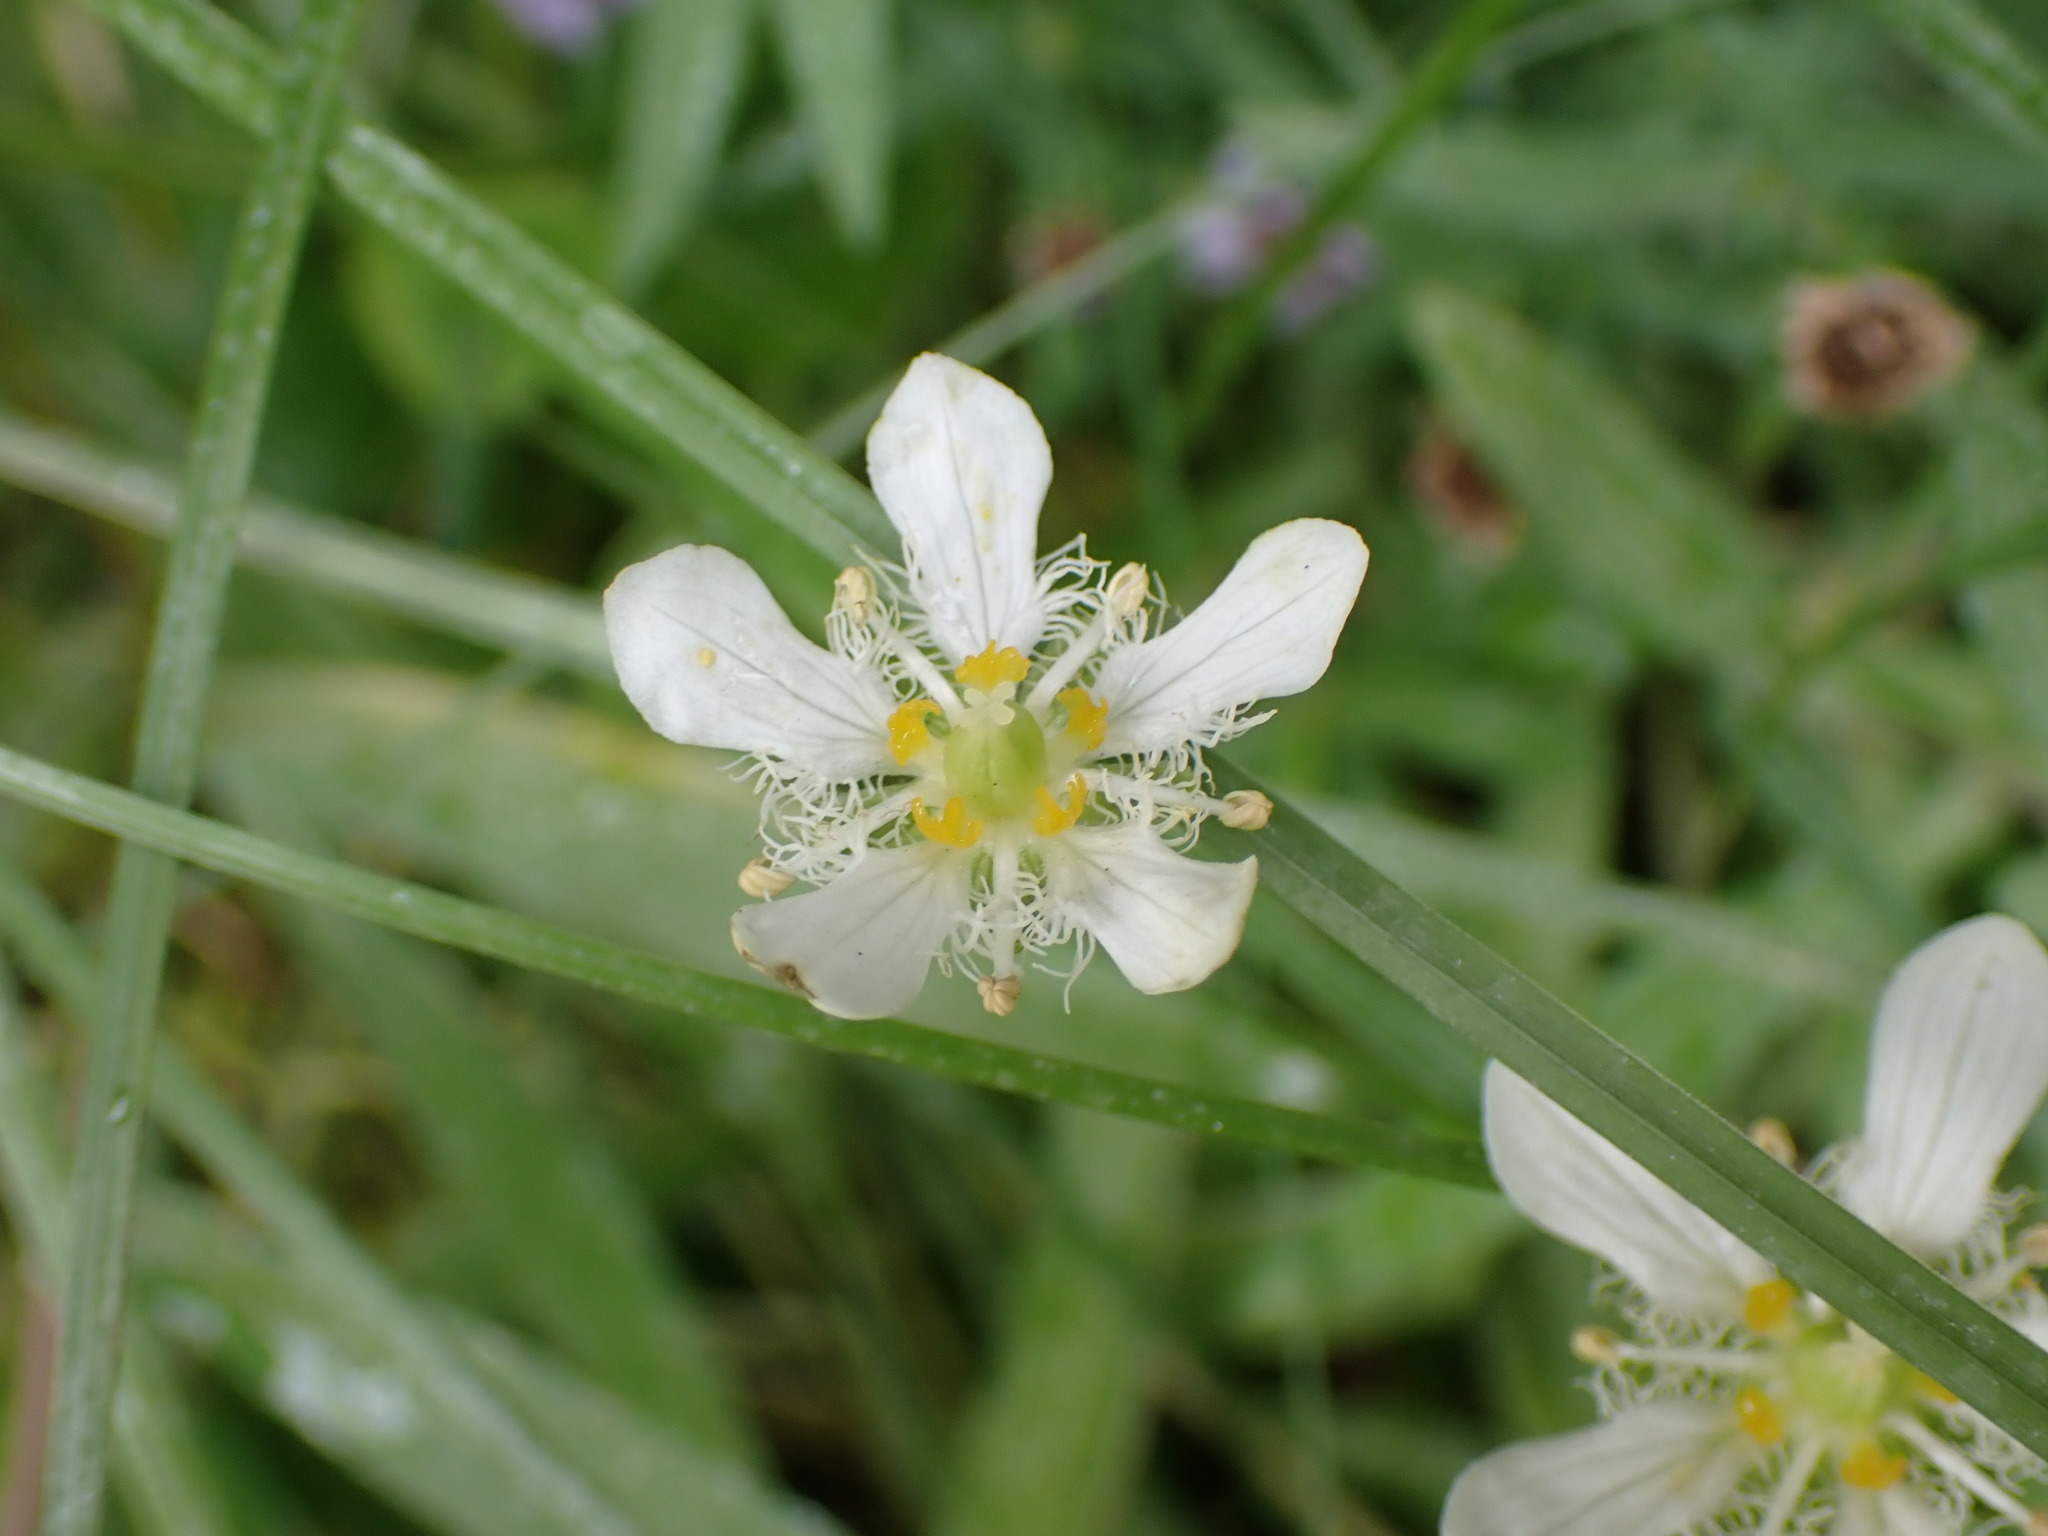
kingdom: Plantae
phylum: Tracheophyta
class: Magnoliopsida
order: Celastrales
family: Parnassiaceae
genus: Parnassia
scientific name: Parnassia fimbriata
